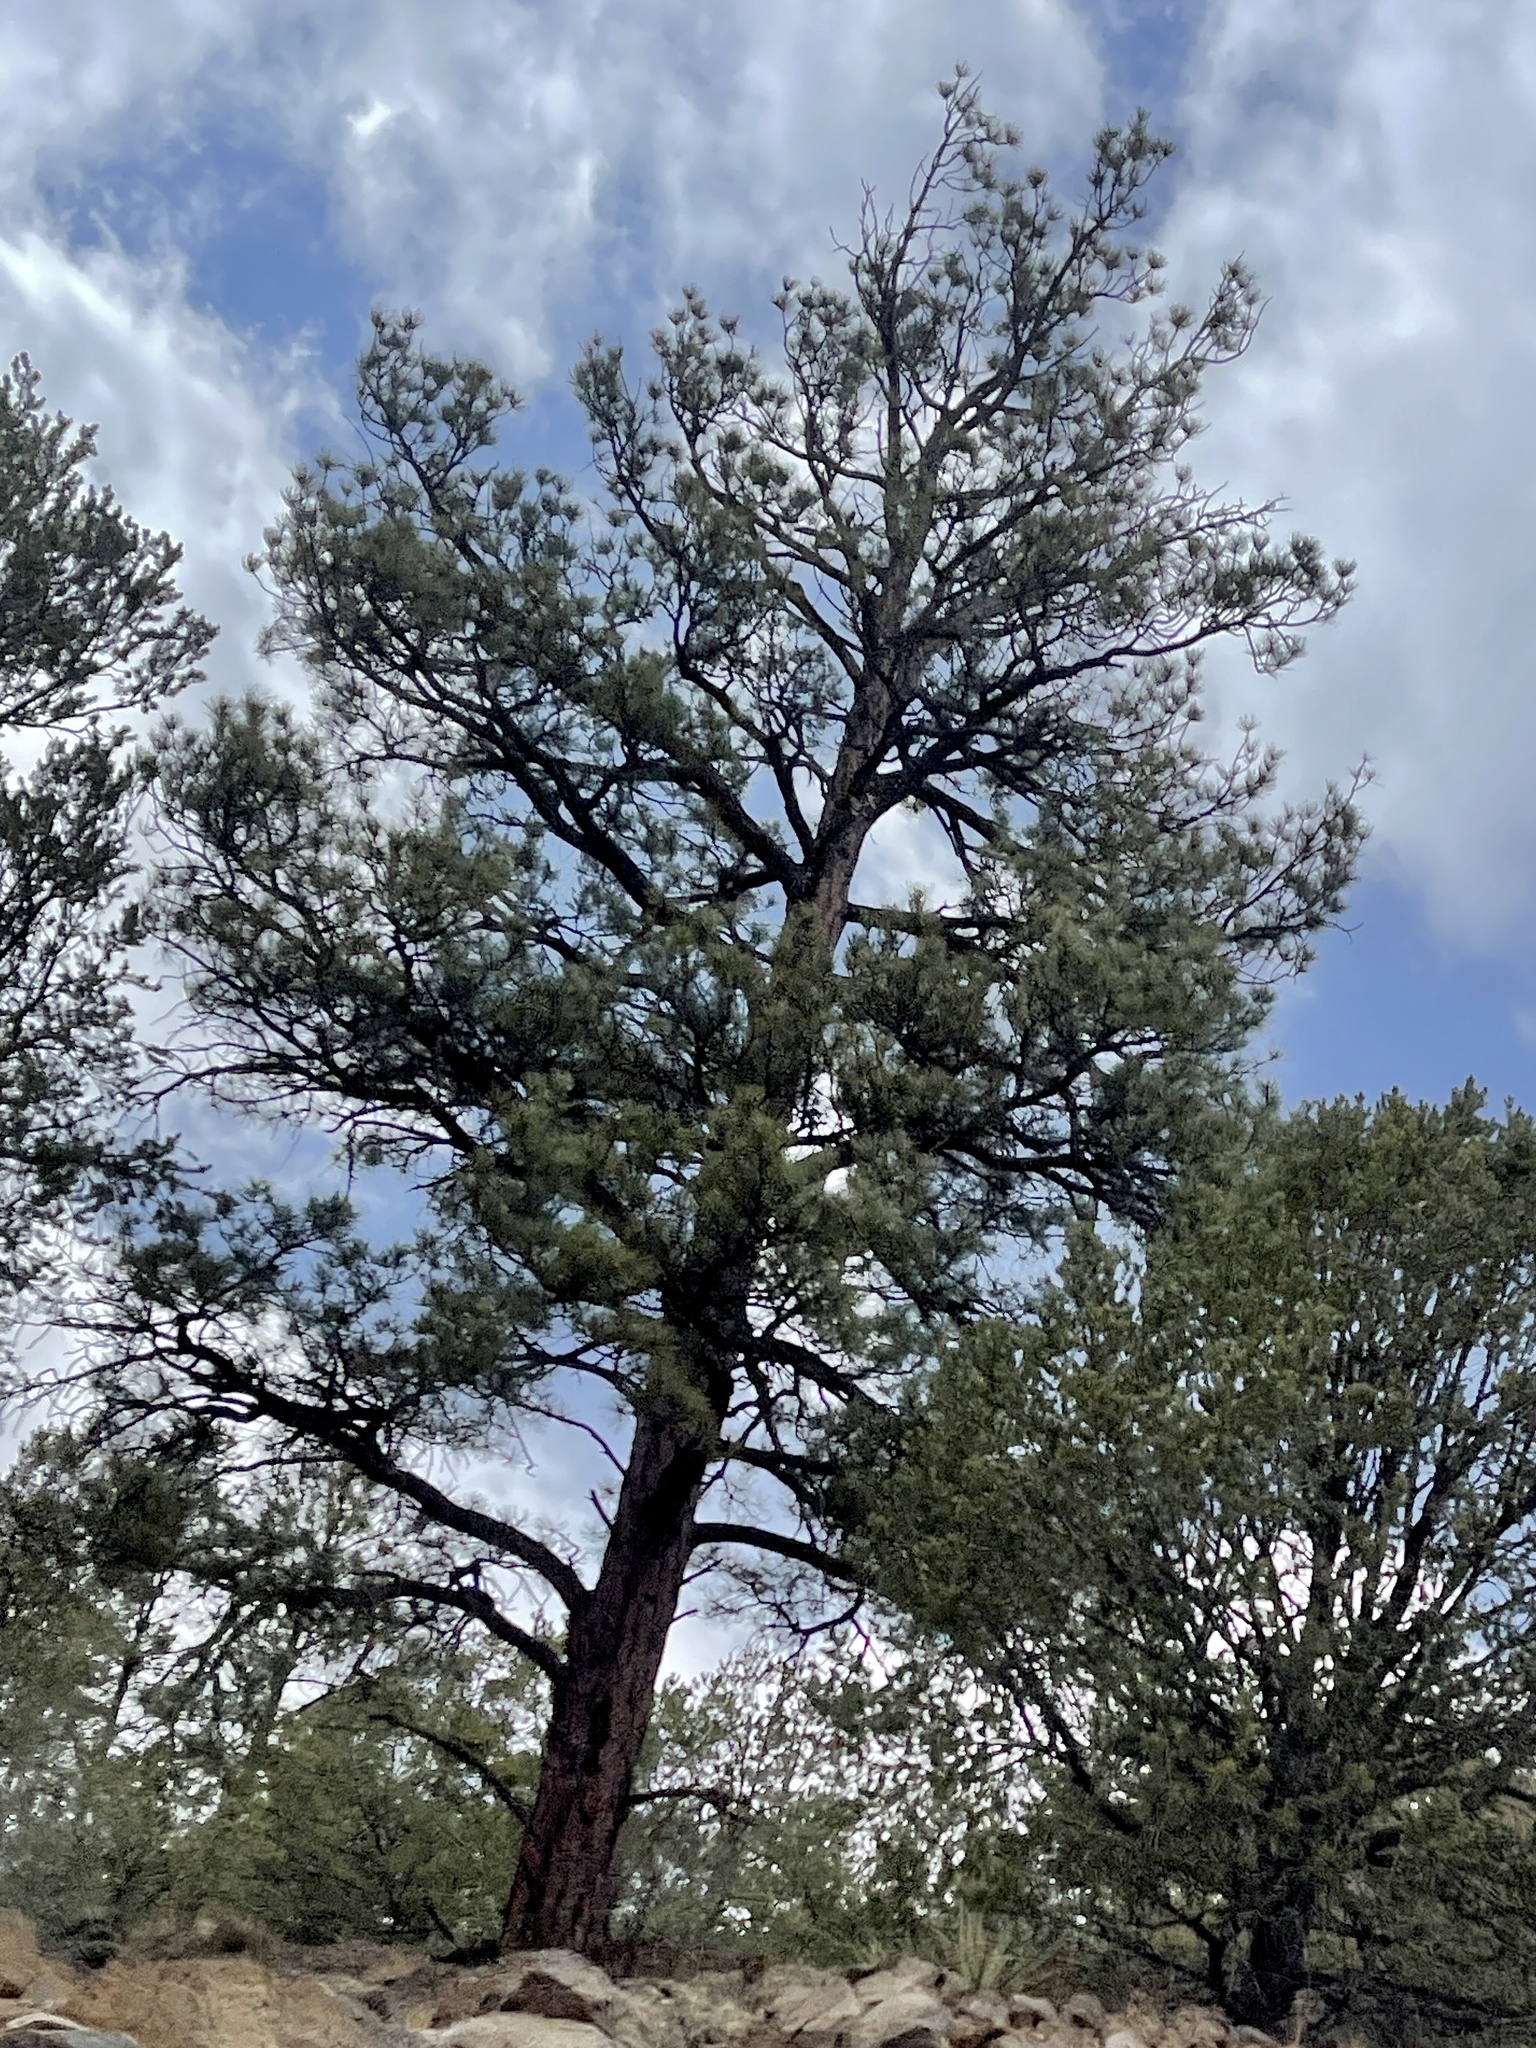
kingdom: Plantae
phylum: Tracheophyta
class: Pinopsida
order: Pinales
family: Pinaceae
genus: Pinus
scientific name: Pinus ponderosa
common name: Western yellow-pine
